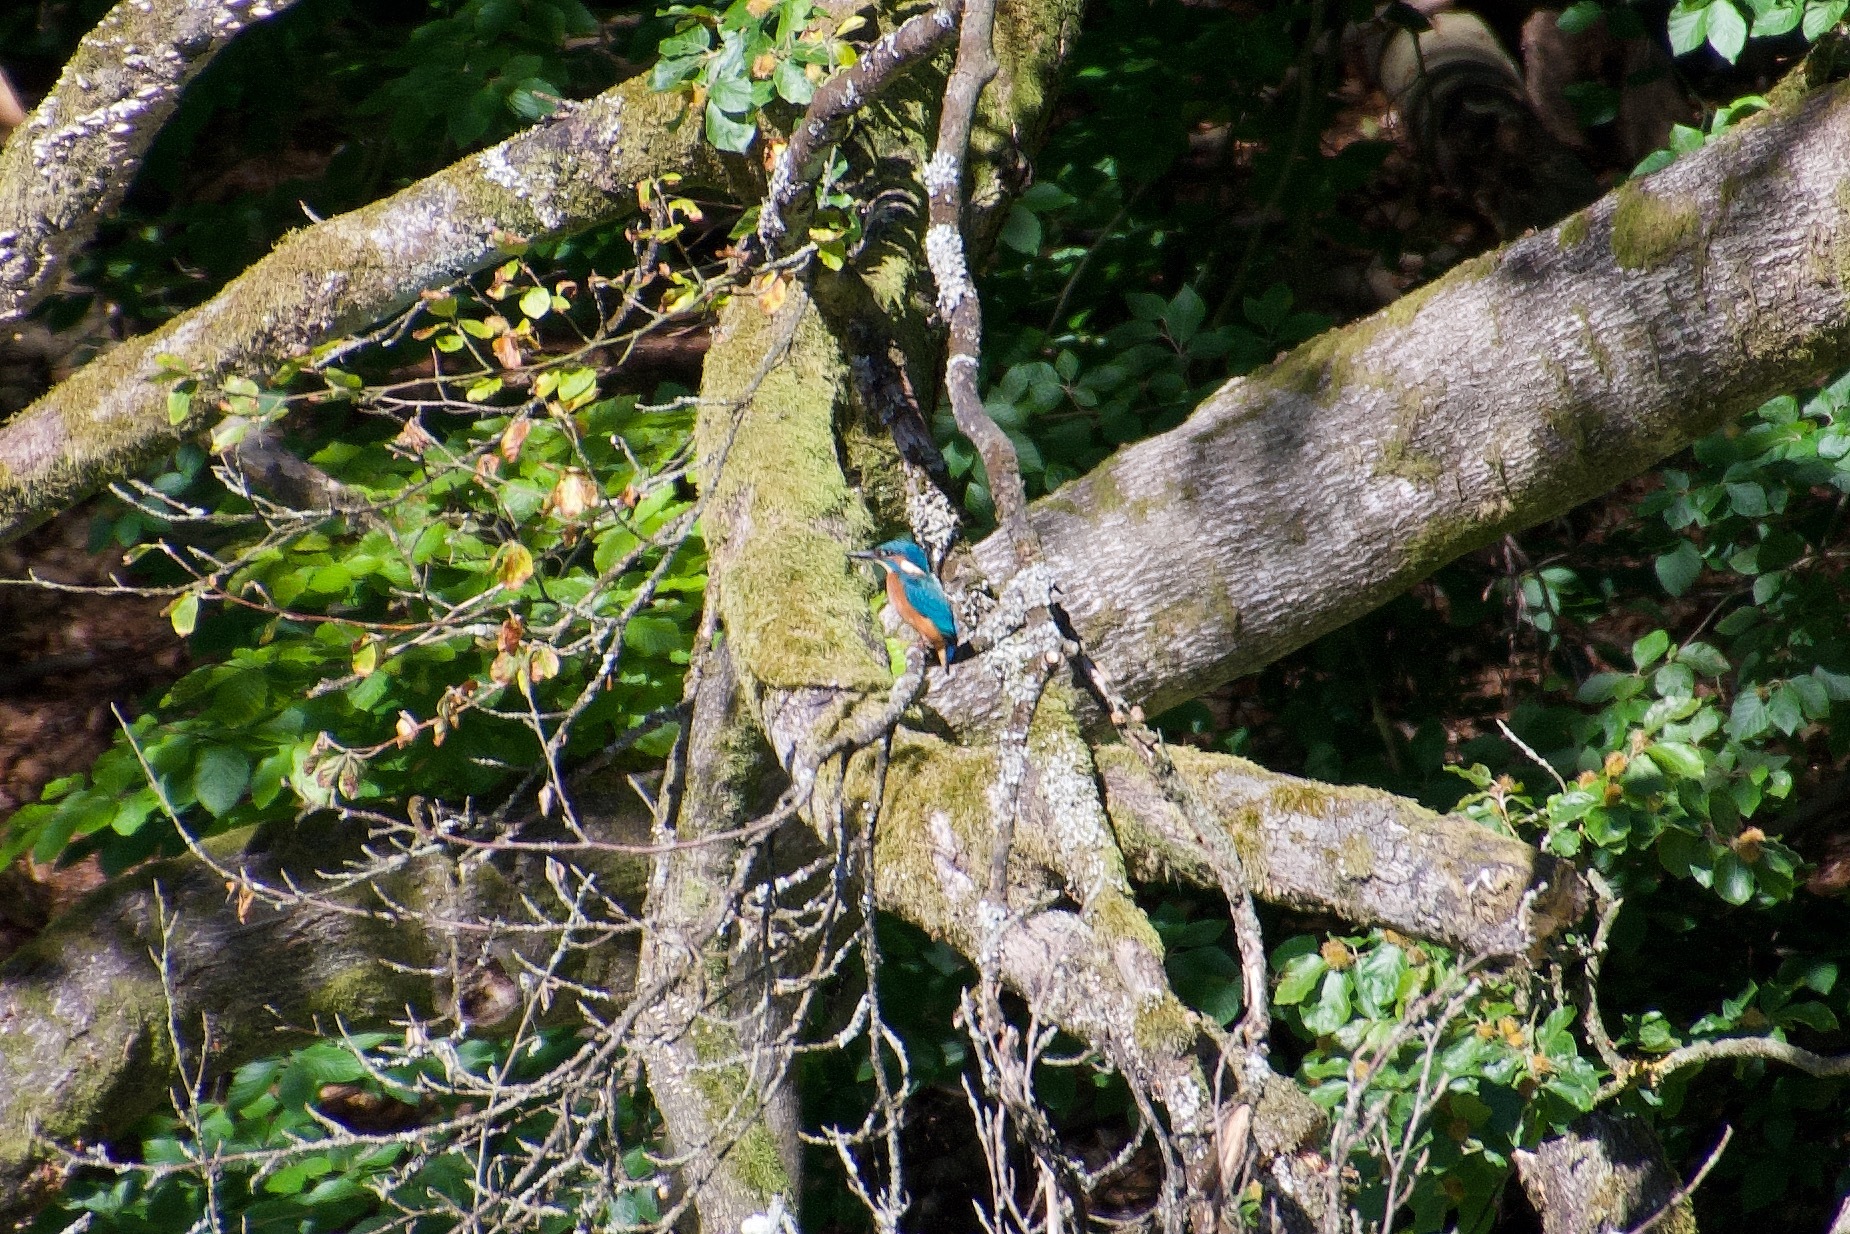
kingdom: Animalia
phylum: Chordata
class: Aves
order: Coraciiformes
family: Alcedinidae
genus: Alcedo
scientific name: Alcedo atthis
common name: Common kingfisher
